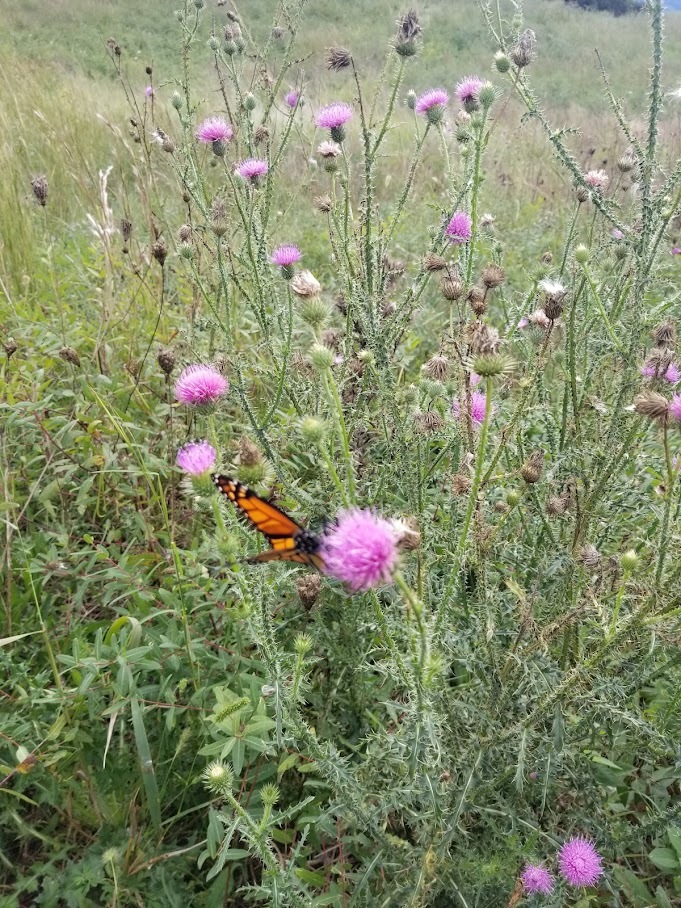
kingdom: Plantae
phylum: Tracheophyta
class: Magnoliopsida
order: Asterales
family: Asteraceae
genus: Carduus
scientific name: Carduus acanthoides
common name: Plumeless thistle
